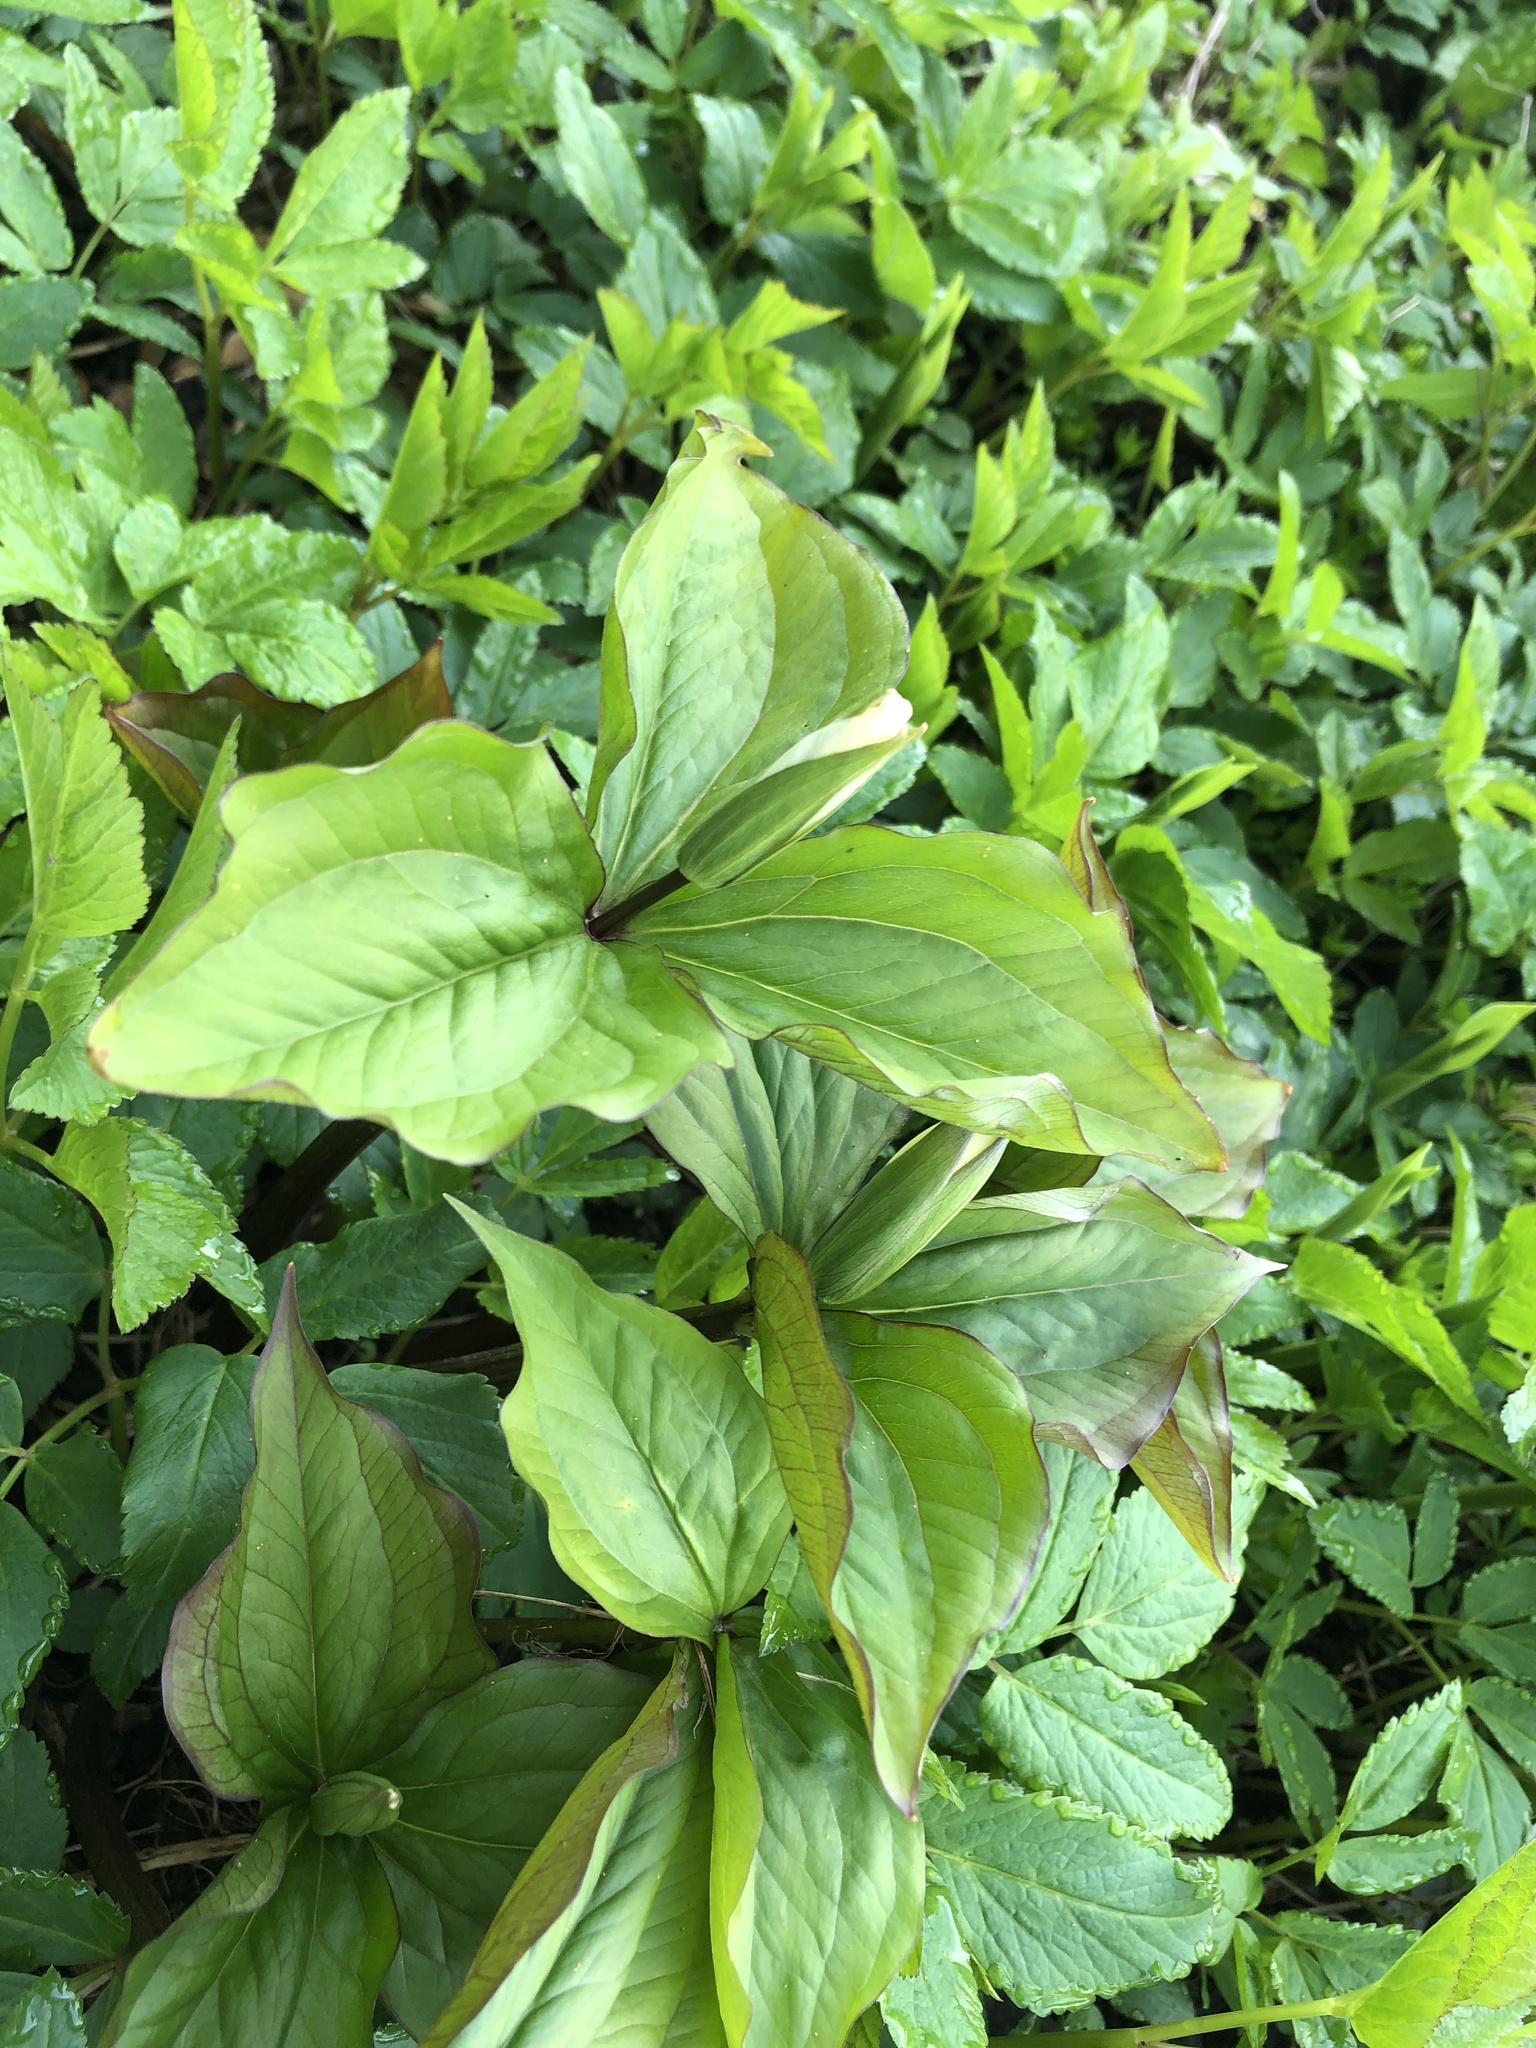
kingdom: Plantae
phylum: Tracheophyta
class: Liliopsida
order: Liliales
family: Melanthiaceae
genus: Trillium
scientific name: Trillium grandiflorum
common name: Great white trillium
